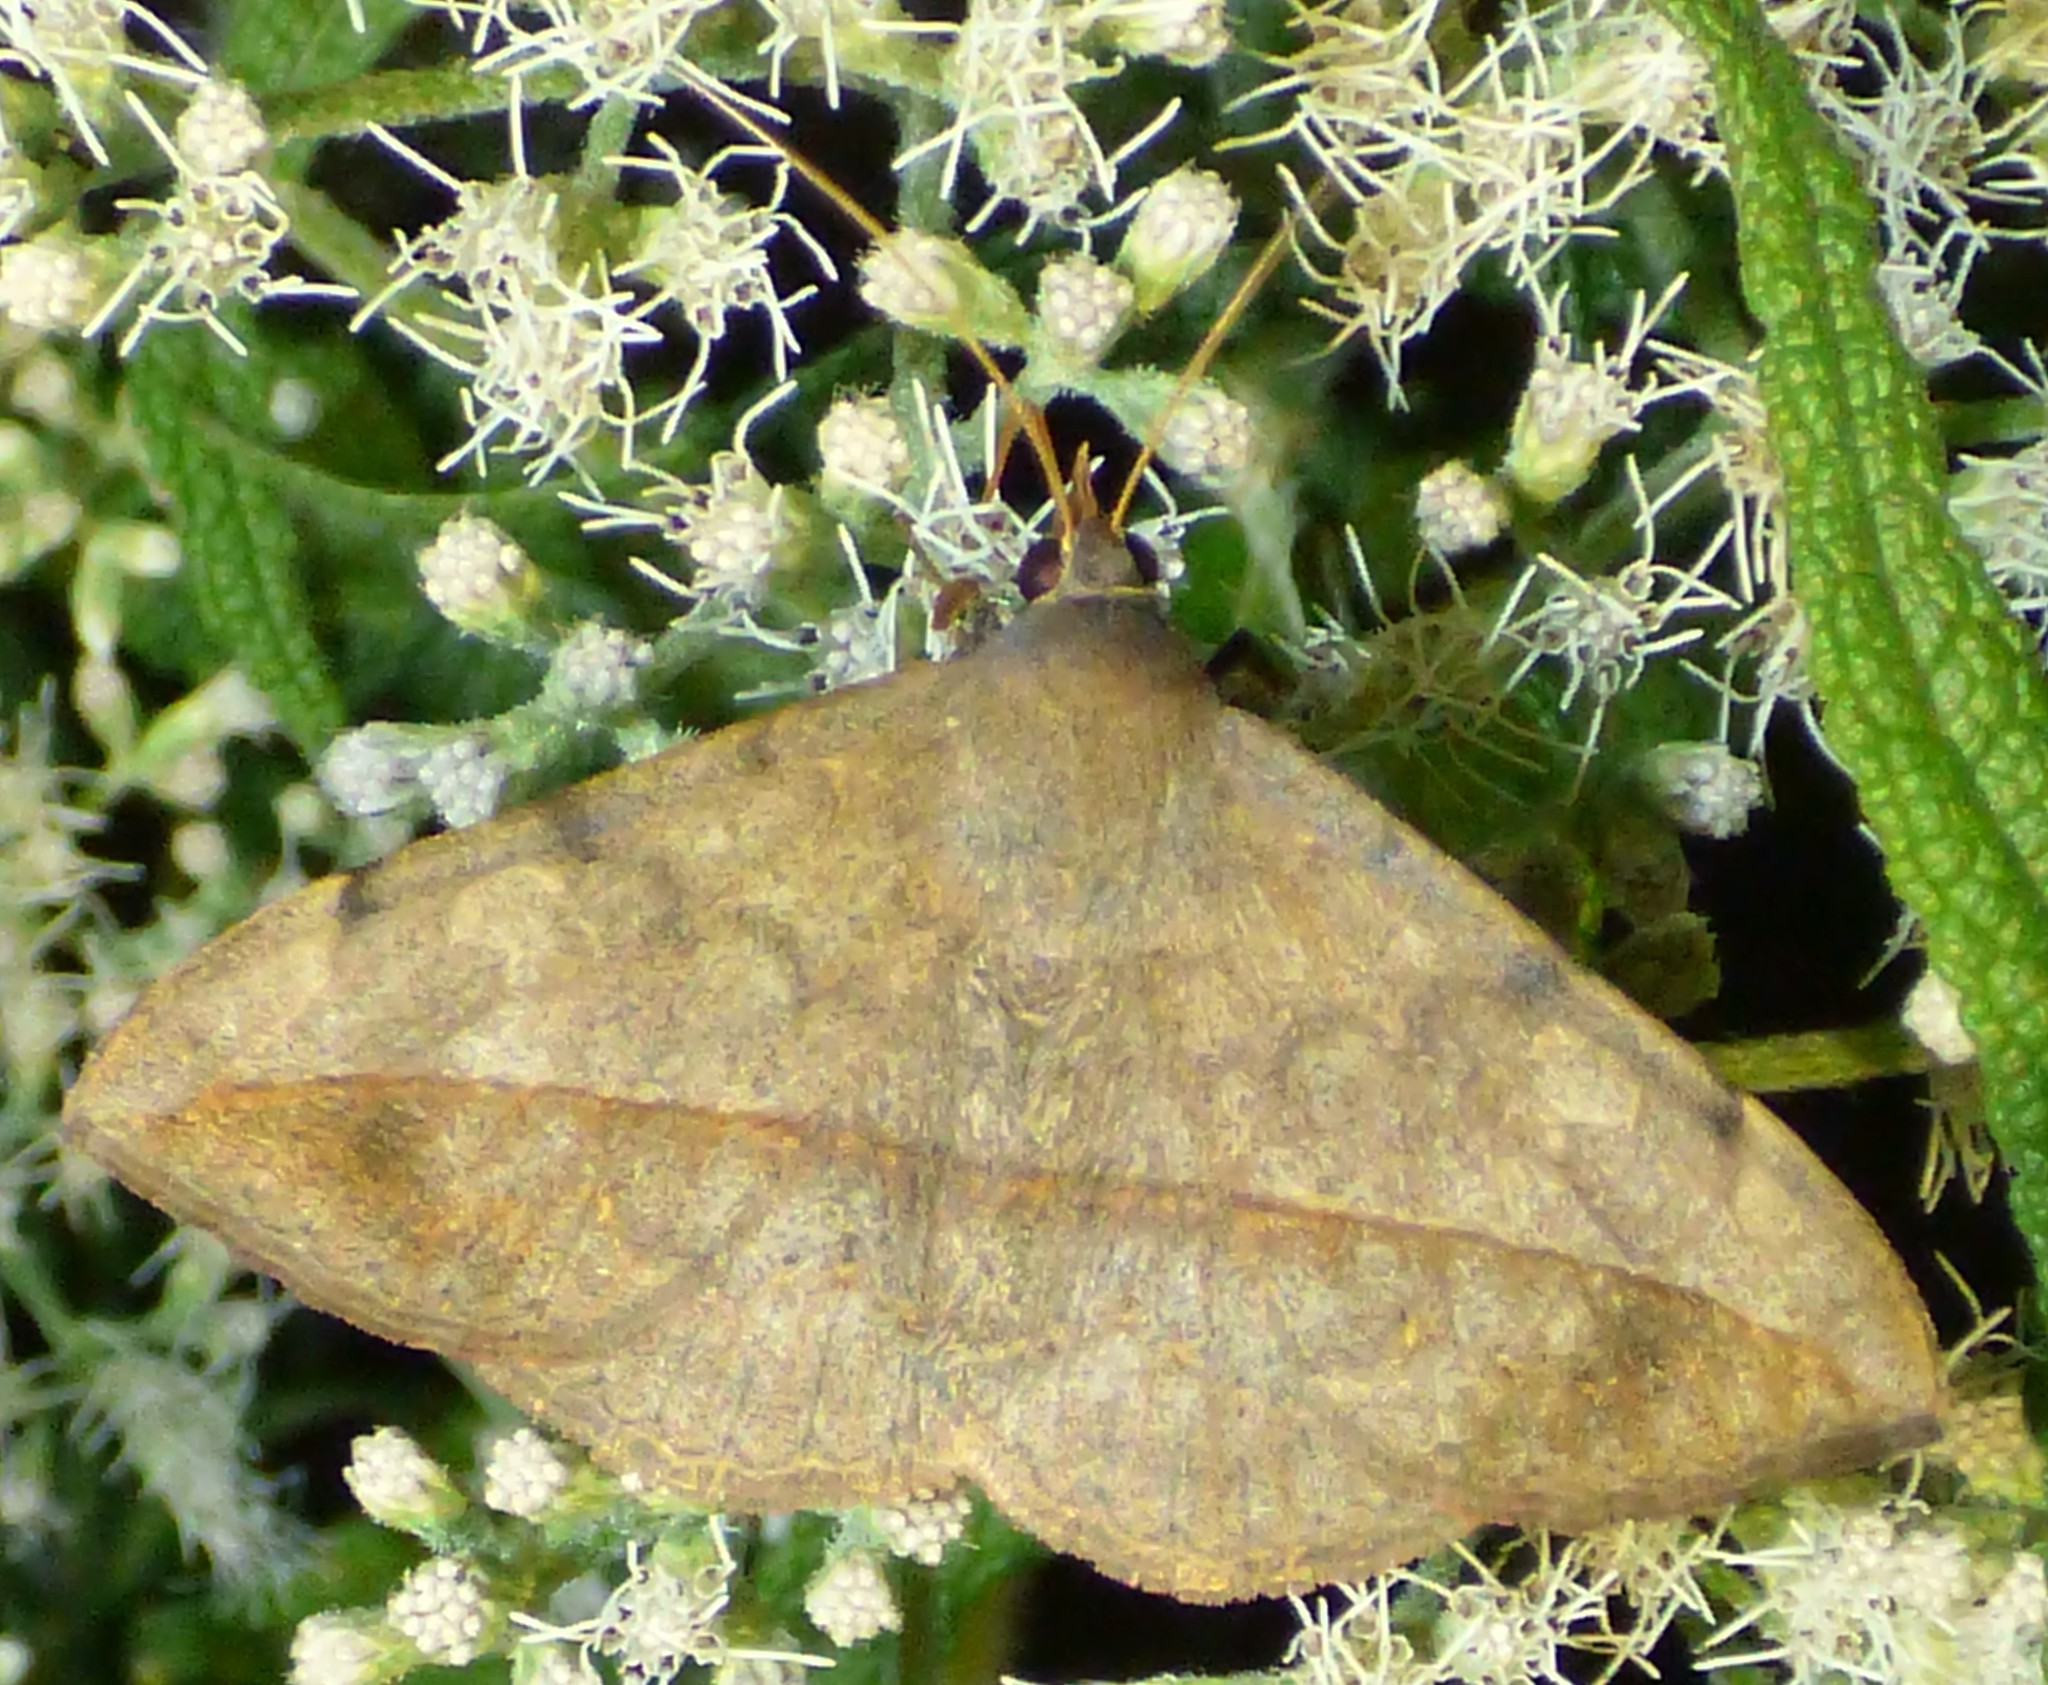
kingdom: Animalia
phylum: Arthropoda
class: Insecta
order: Lepidoptera
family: Erebidae
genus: Anticarsia
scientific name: Anticarsia gemmatalis
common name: Cutworm moth
